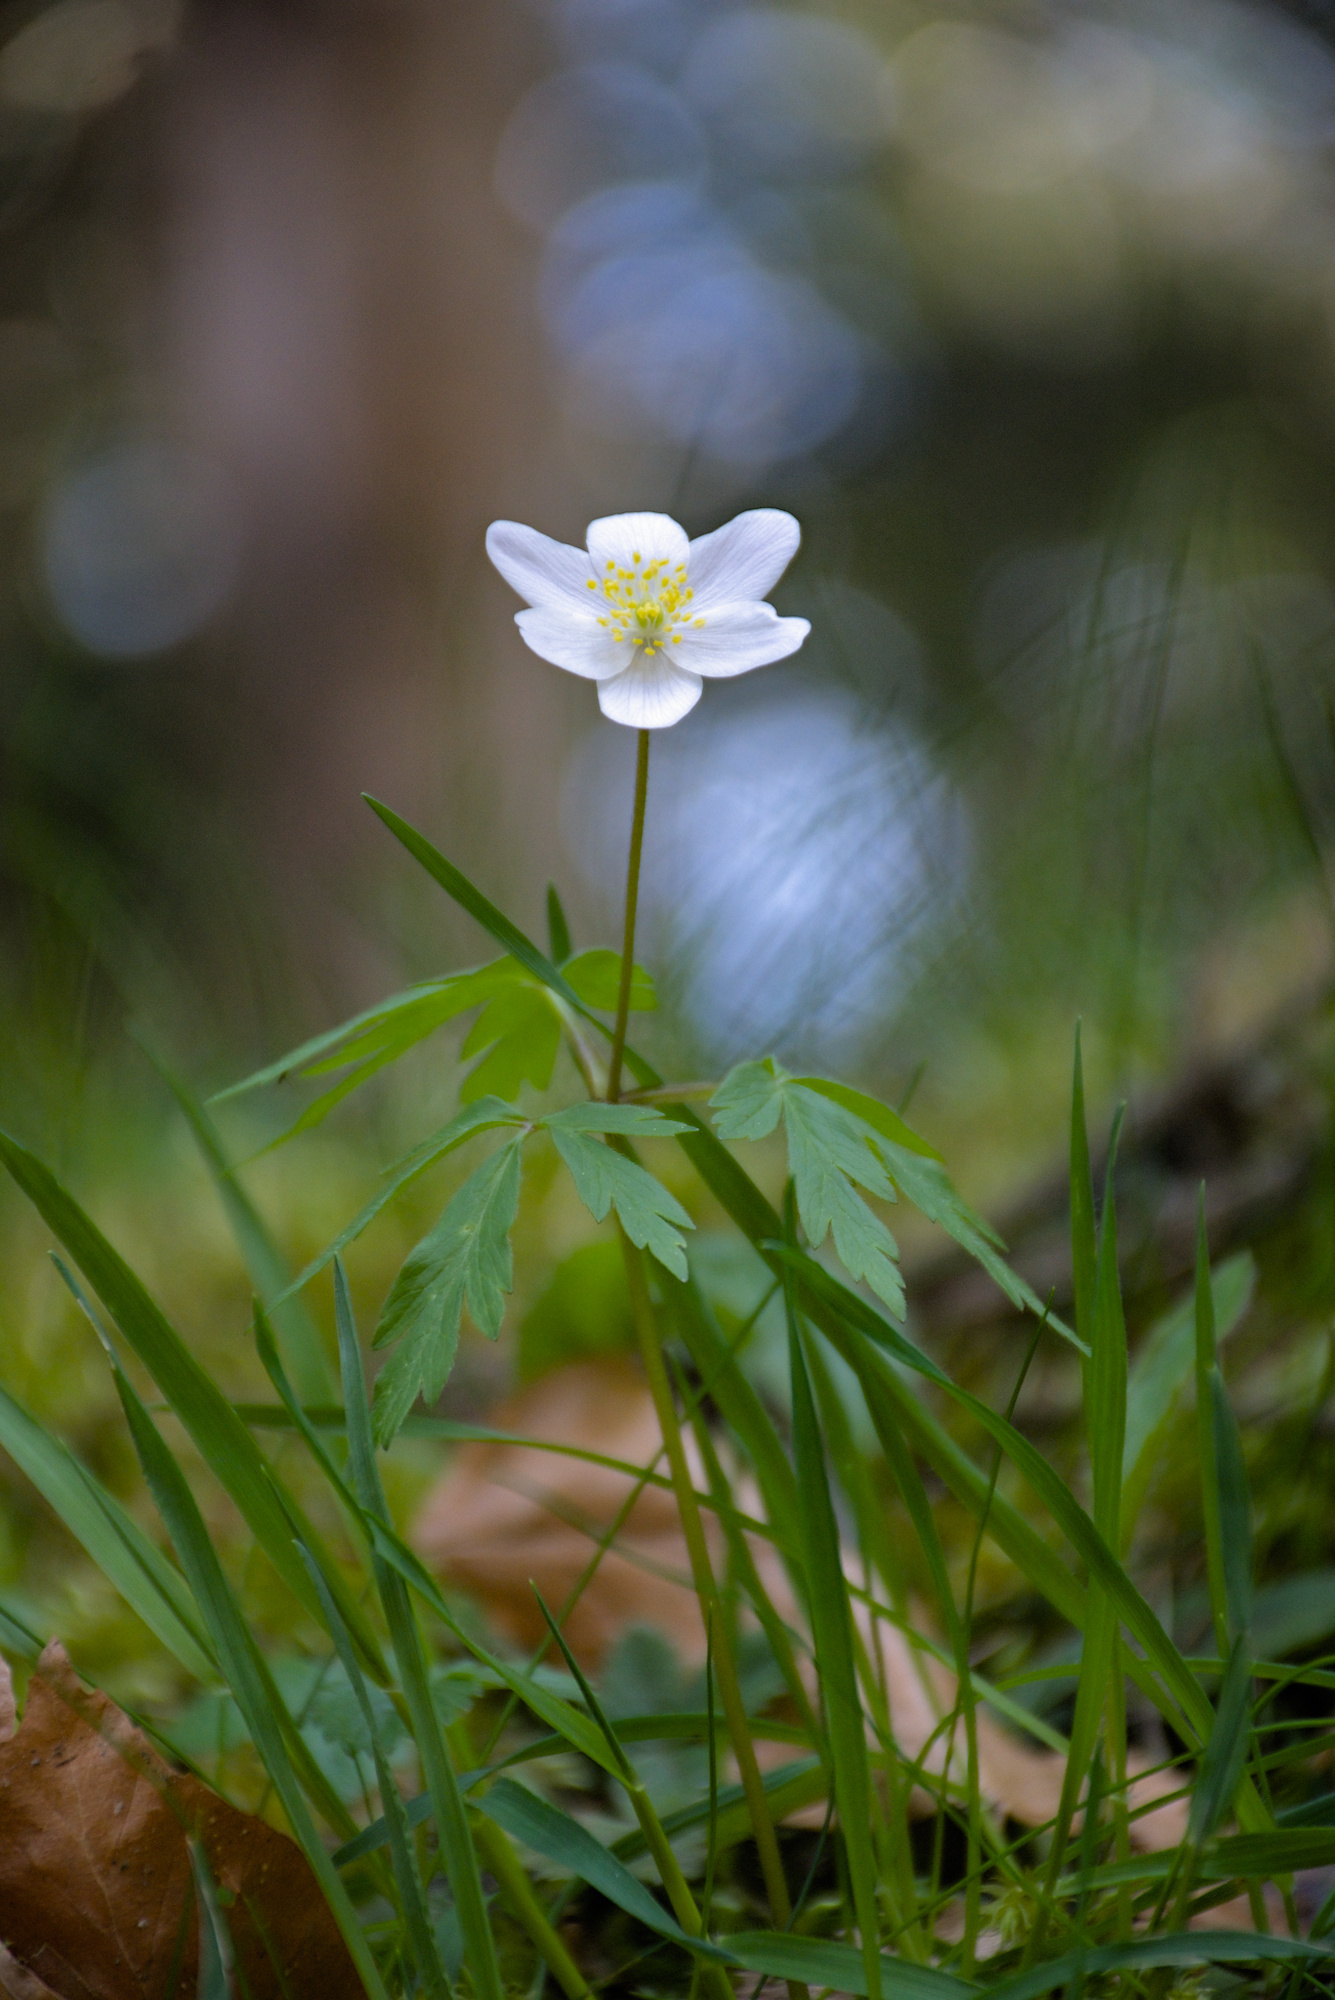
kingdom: Plantae
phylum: Tracheophyta
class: Magnoliopsida
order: Ranunculales
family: Ranunculaceae
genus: Anemone
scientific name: Anemone nemorosa
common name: Wood anemone
